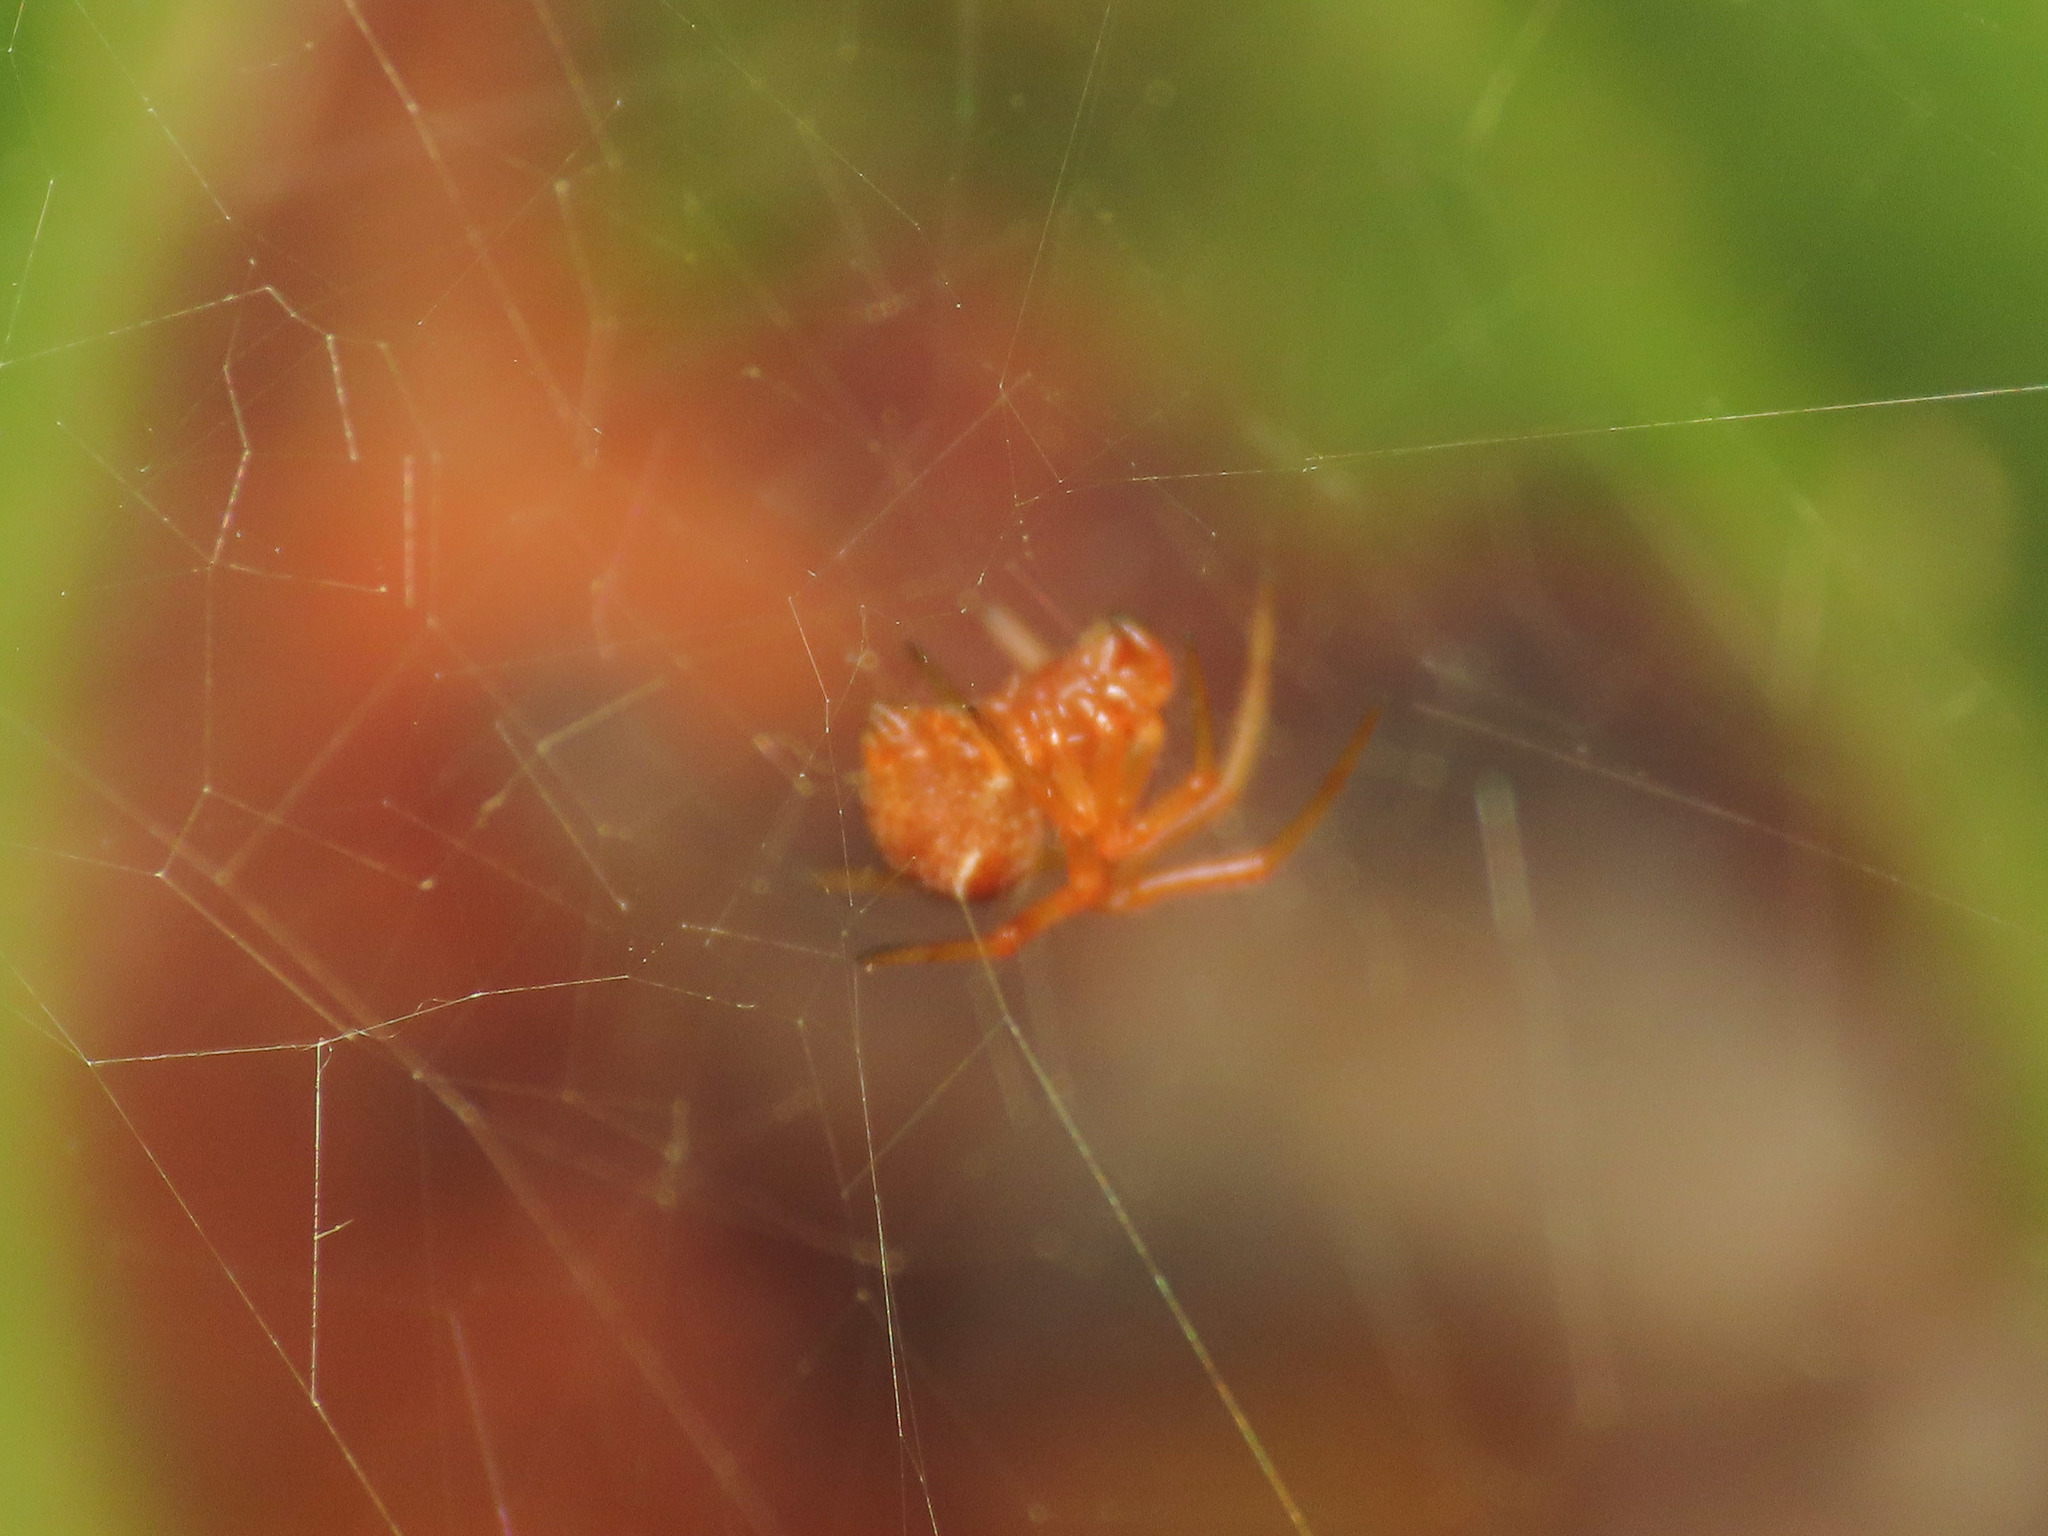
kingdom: Animalia
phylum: Arthropoda
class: Arachnida
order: Araneae
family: Theridiidae
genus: Parasteatoda
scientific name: Parasteatoda lunata
